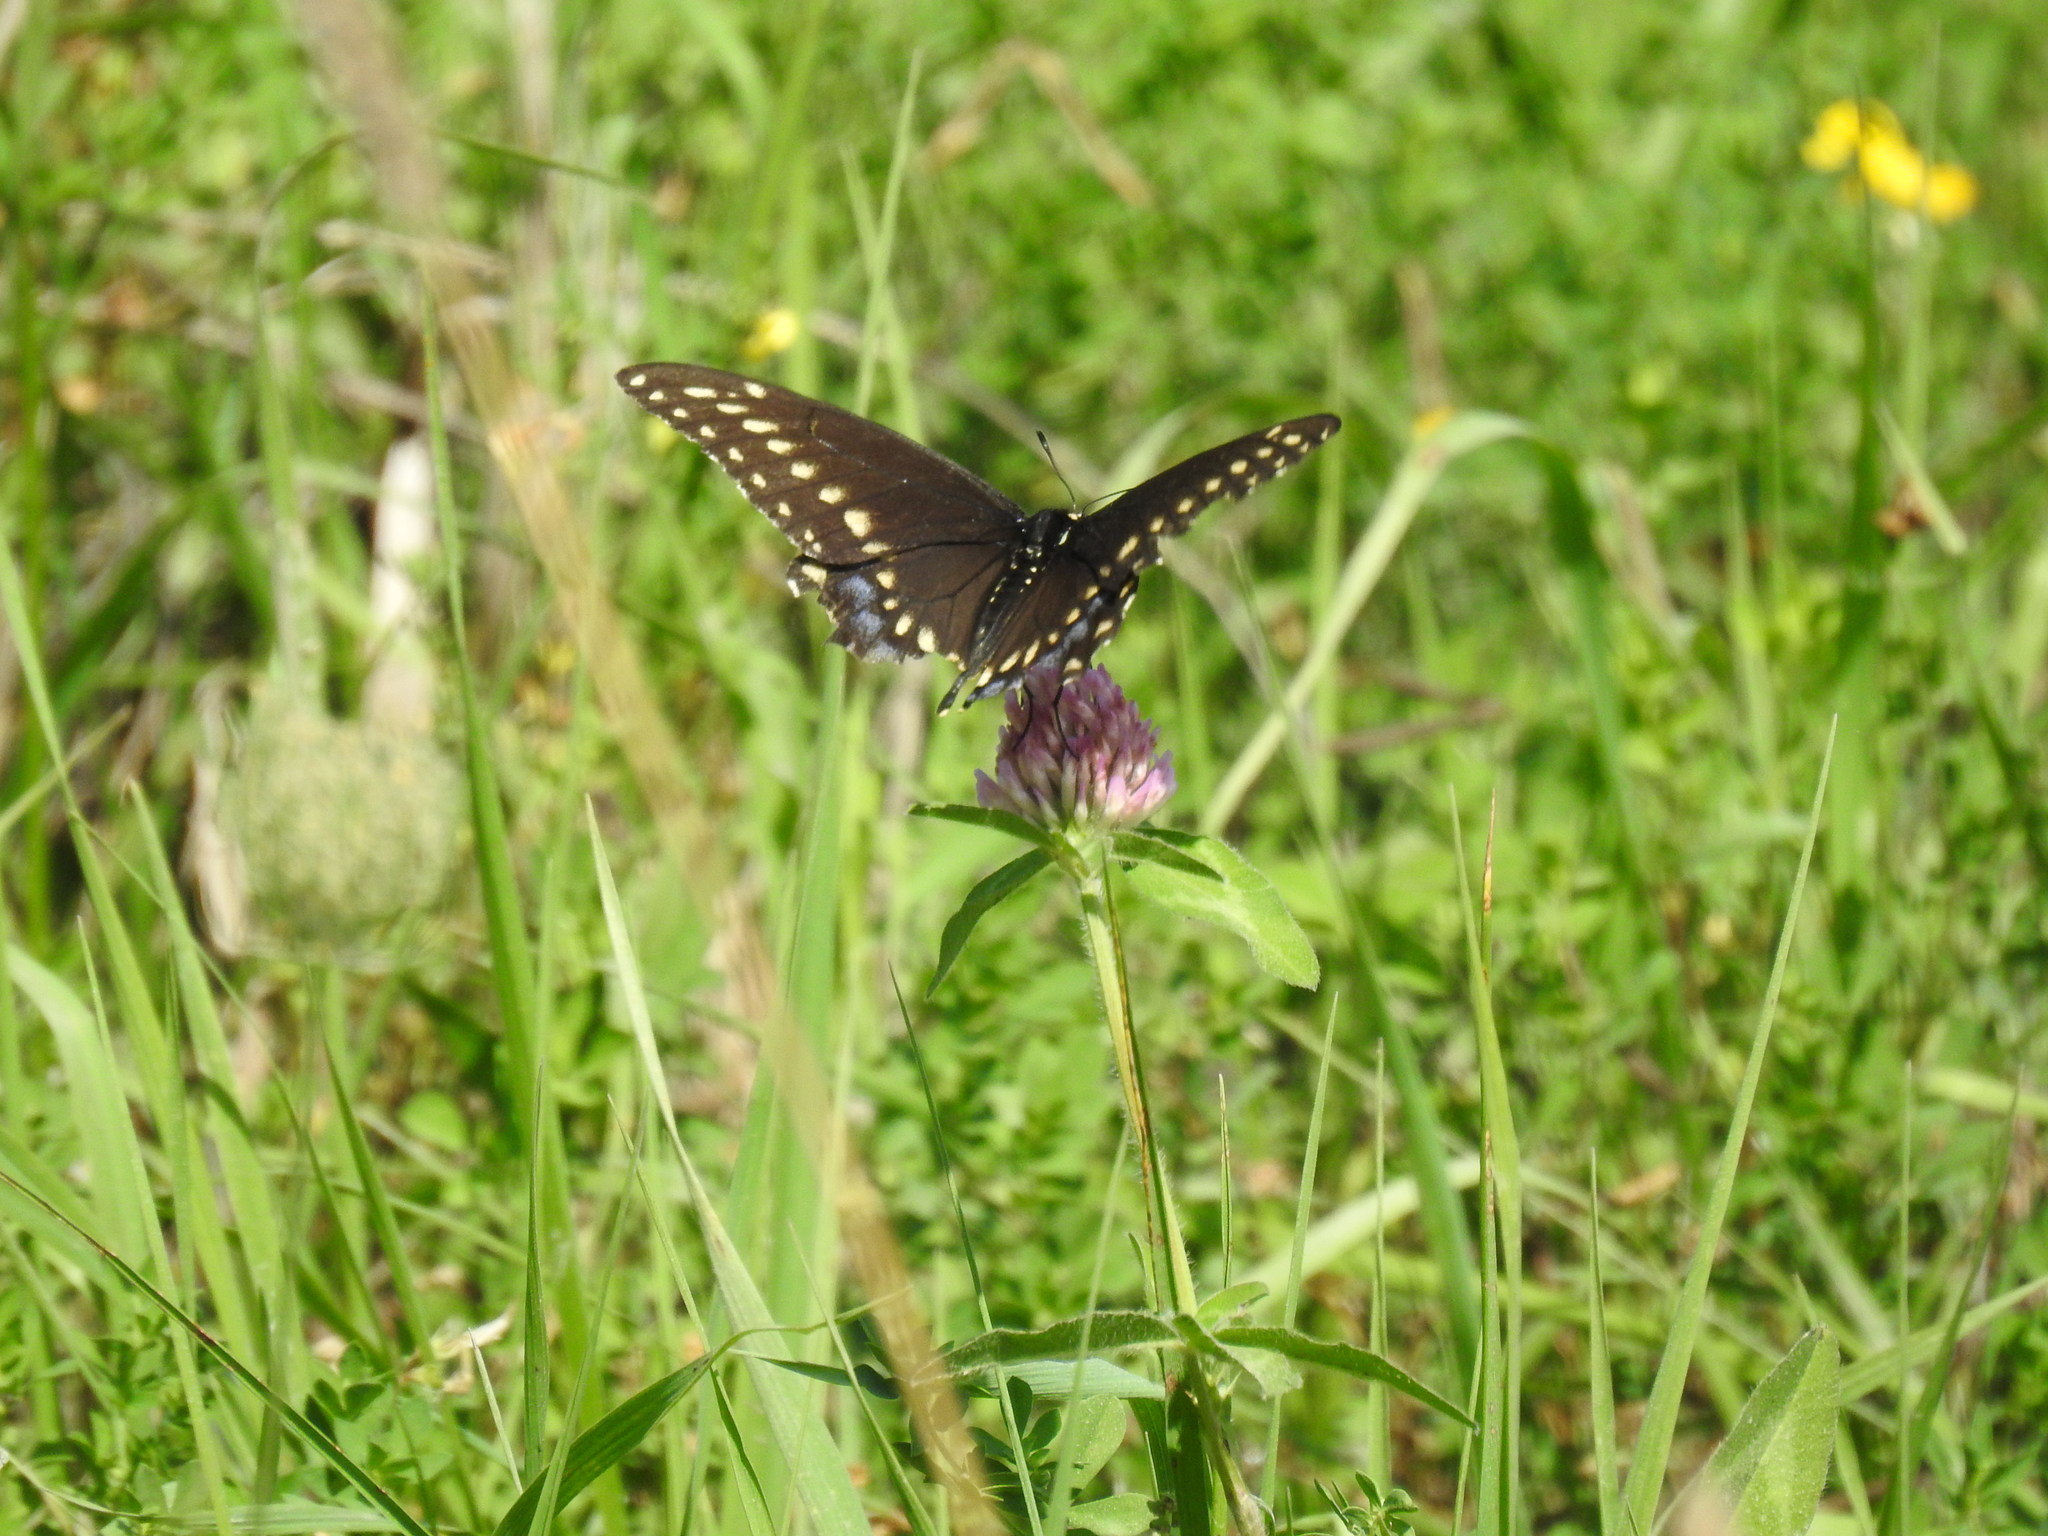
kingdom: Animalia
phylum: Arthropoda
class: Insecta
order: Lepidoptera
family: Papilionidae
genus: Papilio
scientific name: Papilio polyxenes
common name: Black swallowtail
